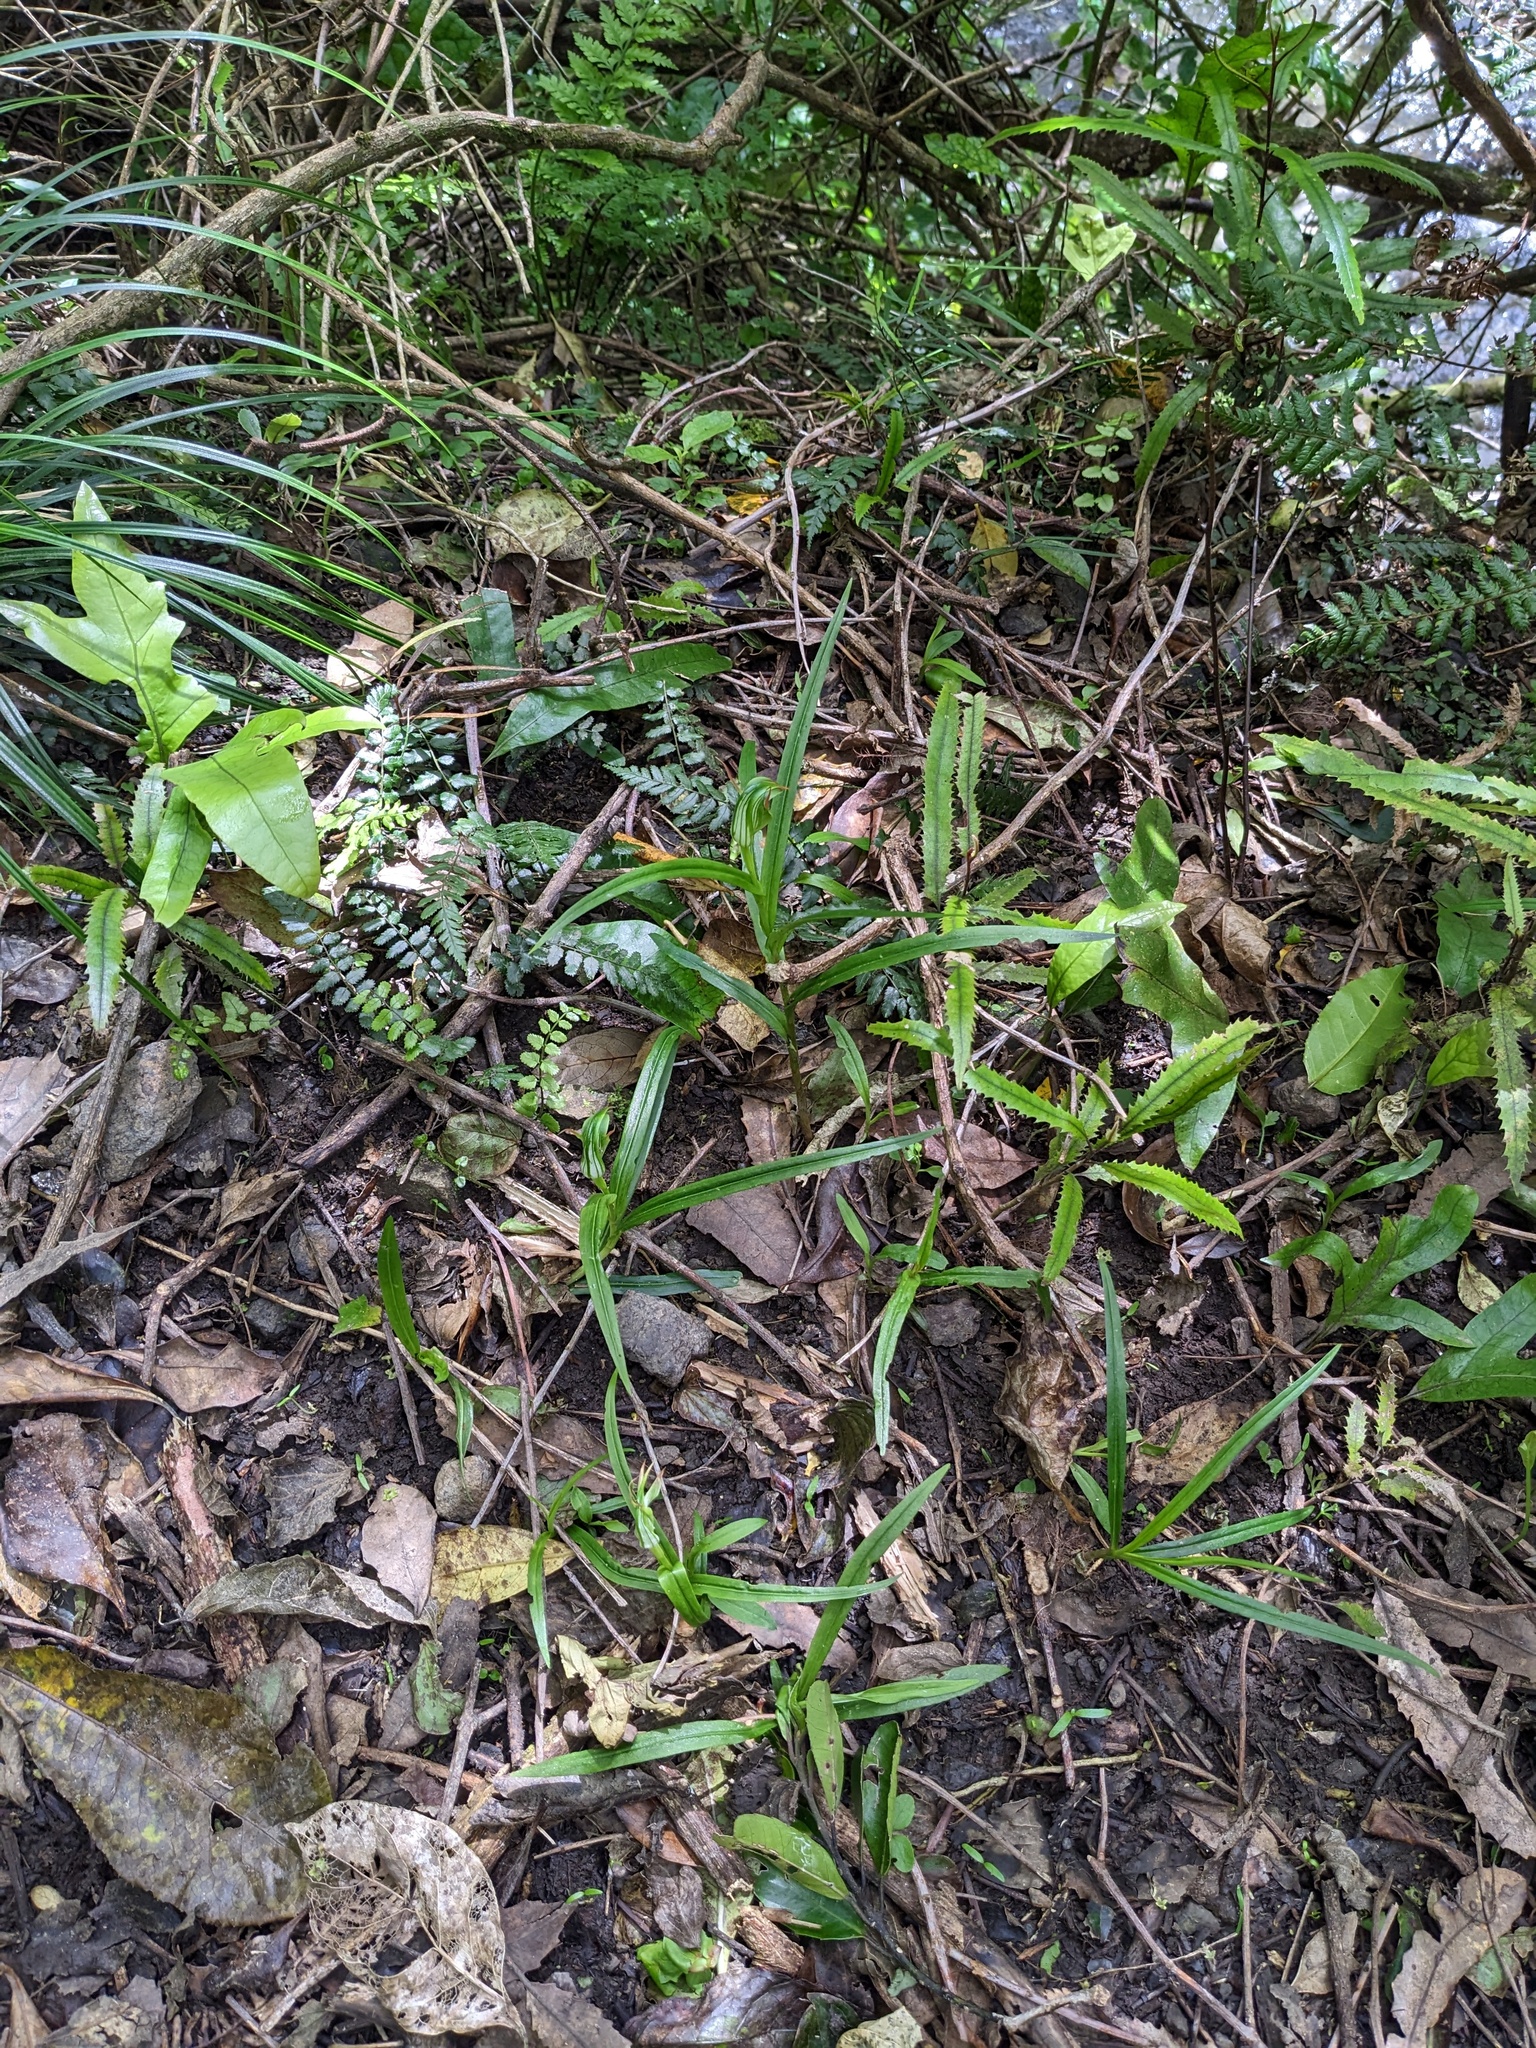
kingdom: Plantae
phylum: Tracheophyta
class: Liliopsida
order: Asparagales
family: Orchidaceae
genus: Pterostylis
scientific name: Pterostylis montana
